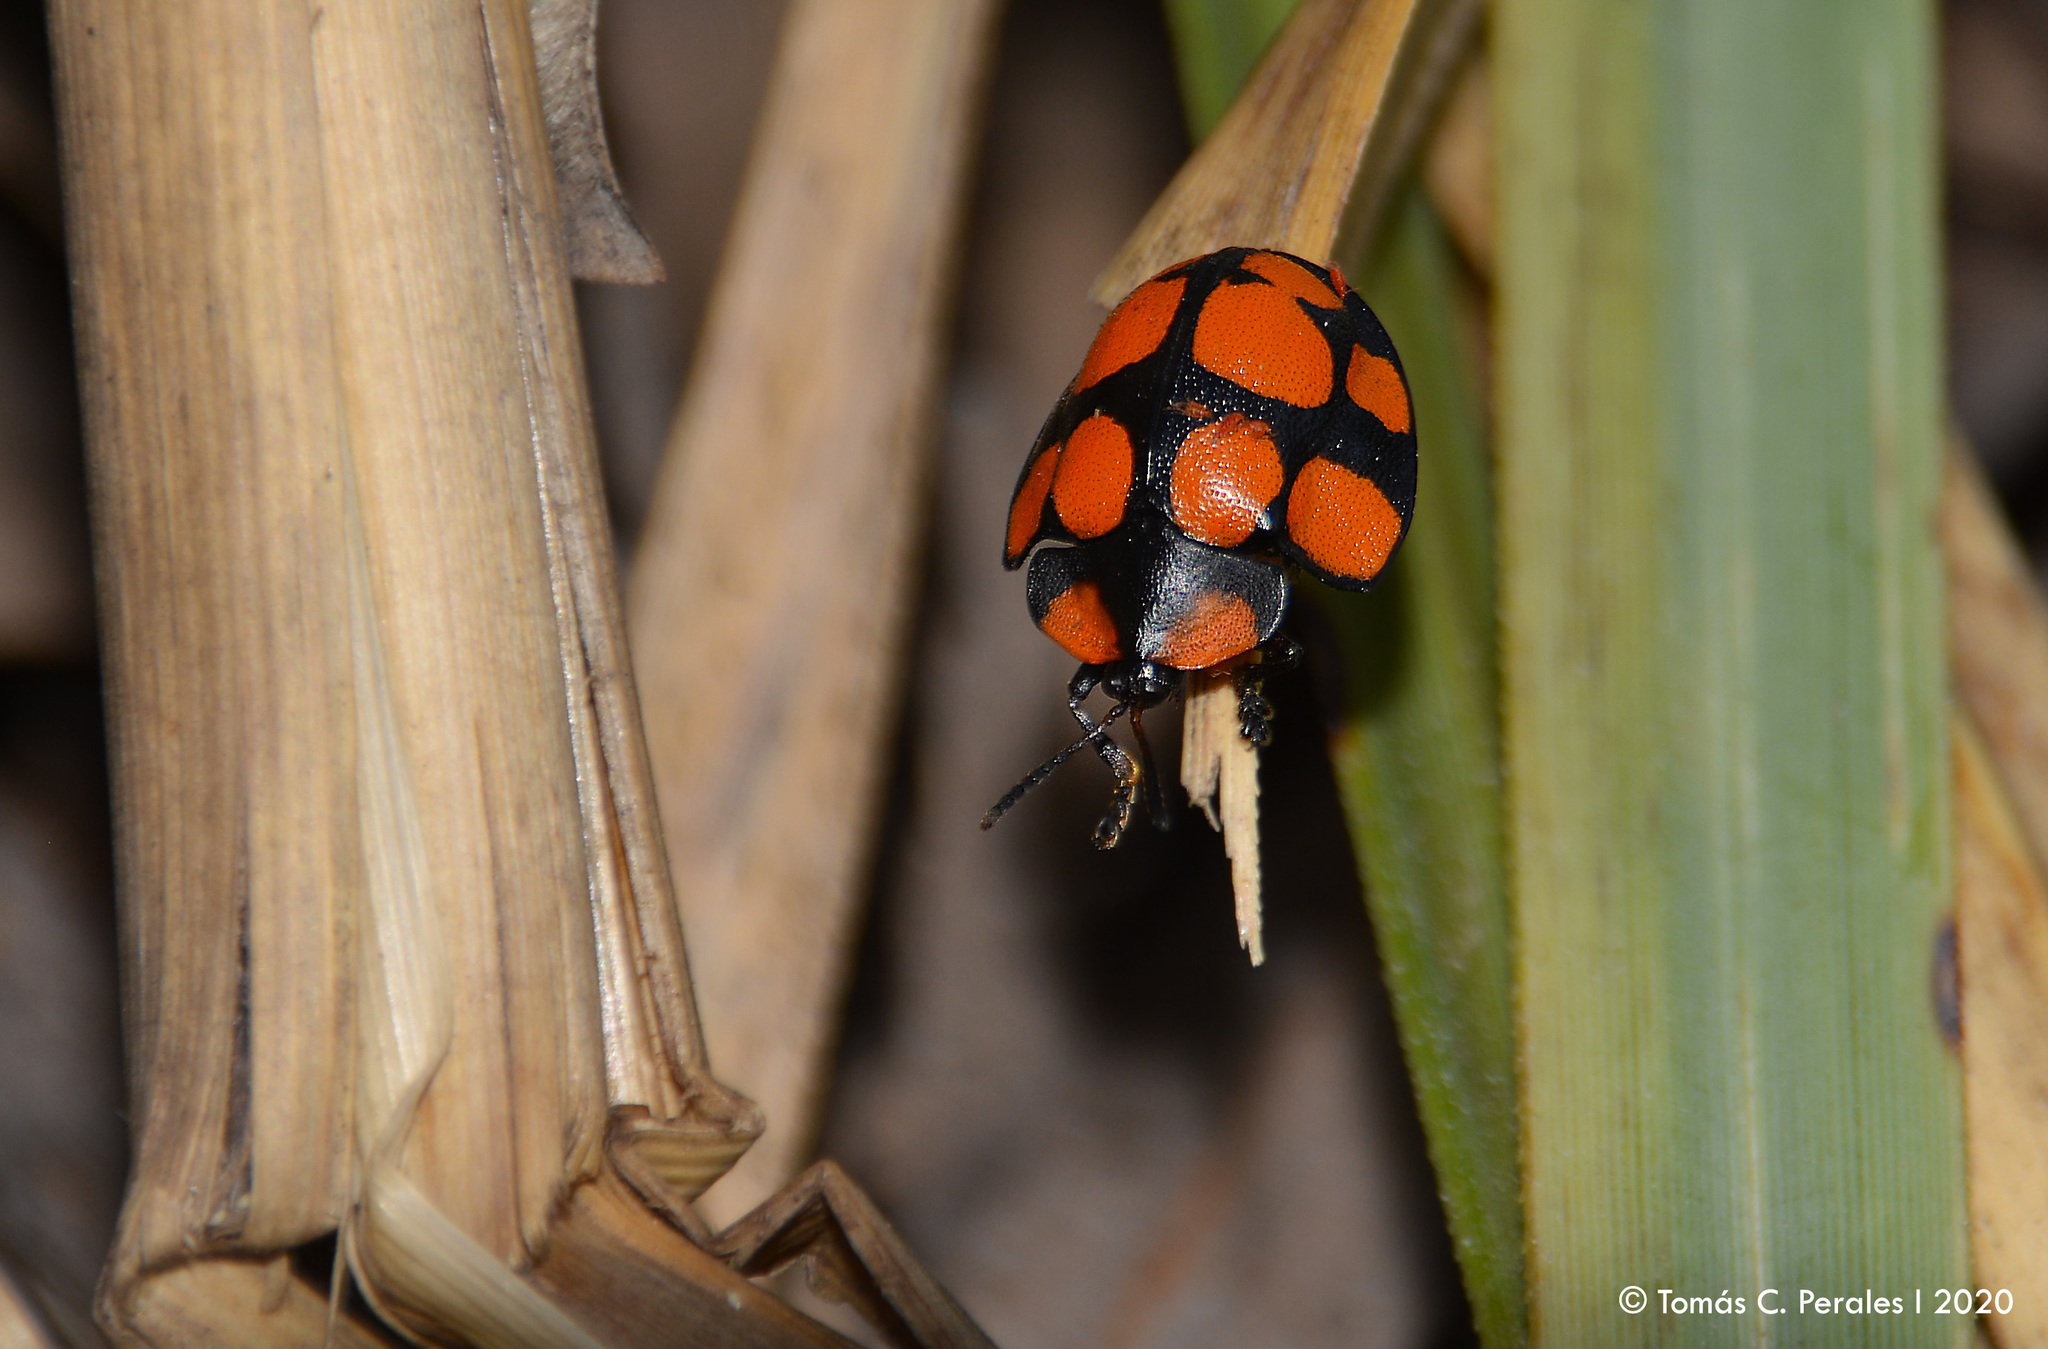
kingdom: Animalia
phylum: Arthropoda
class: Insecta
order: Coleoptera
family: Chrysomelidae
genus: Botanochara
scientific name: Botanochara decempustulata
